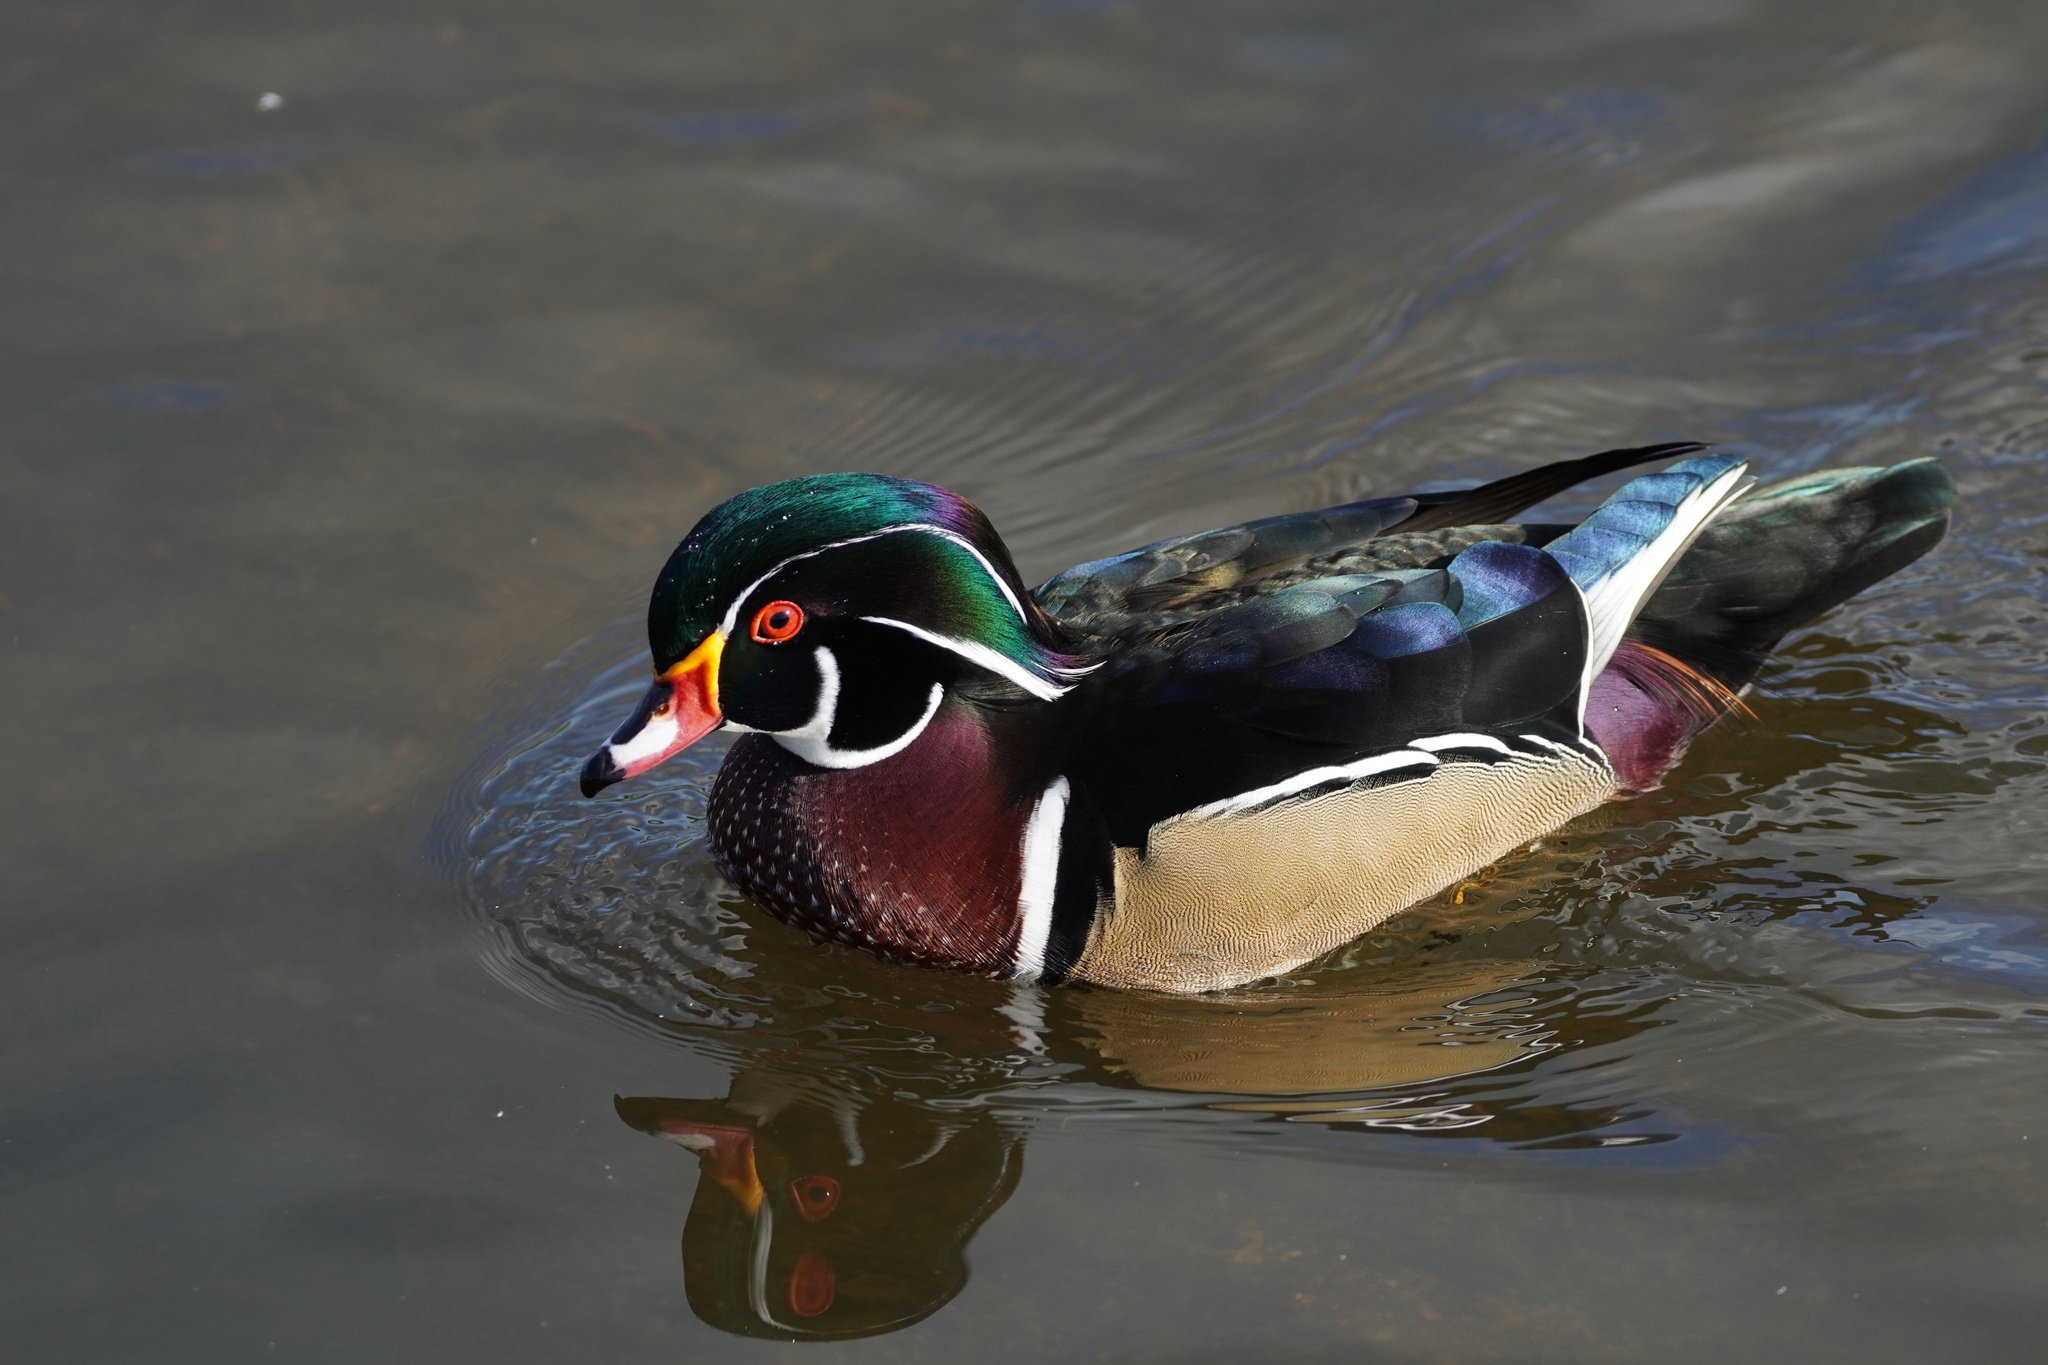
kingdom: Animalia
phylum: Chordata
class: Aves
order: Anseriformes
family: Anatidae
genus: Aix
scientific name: Aix sponsa
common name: Wood duck
